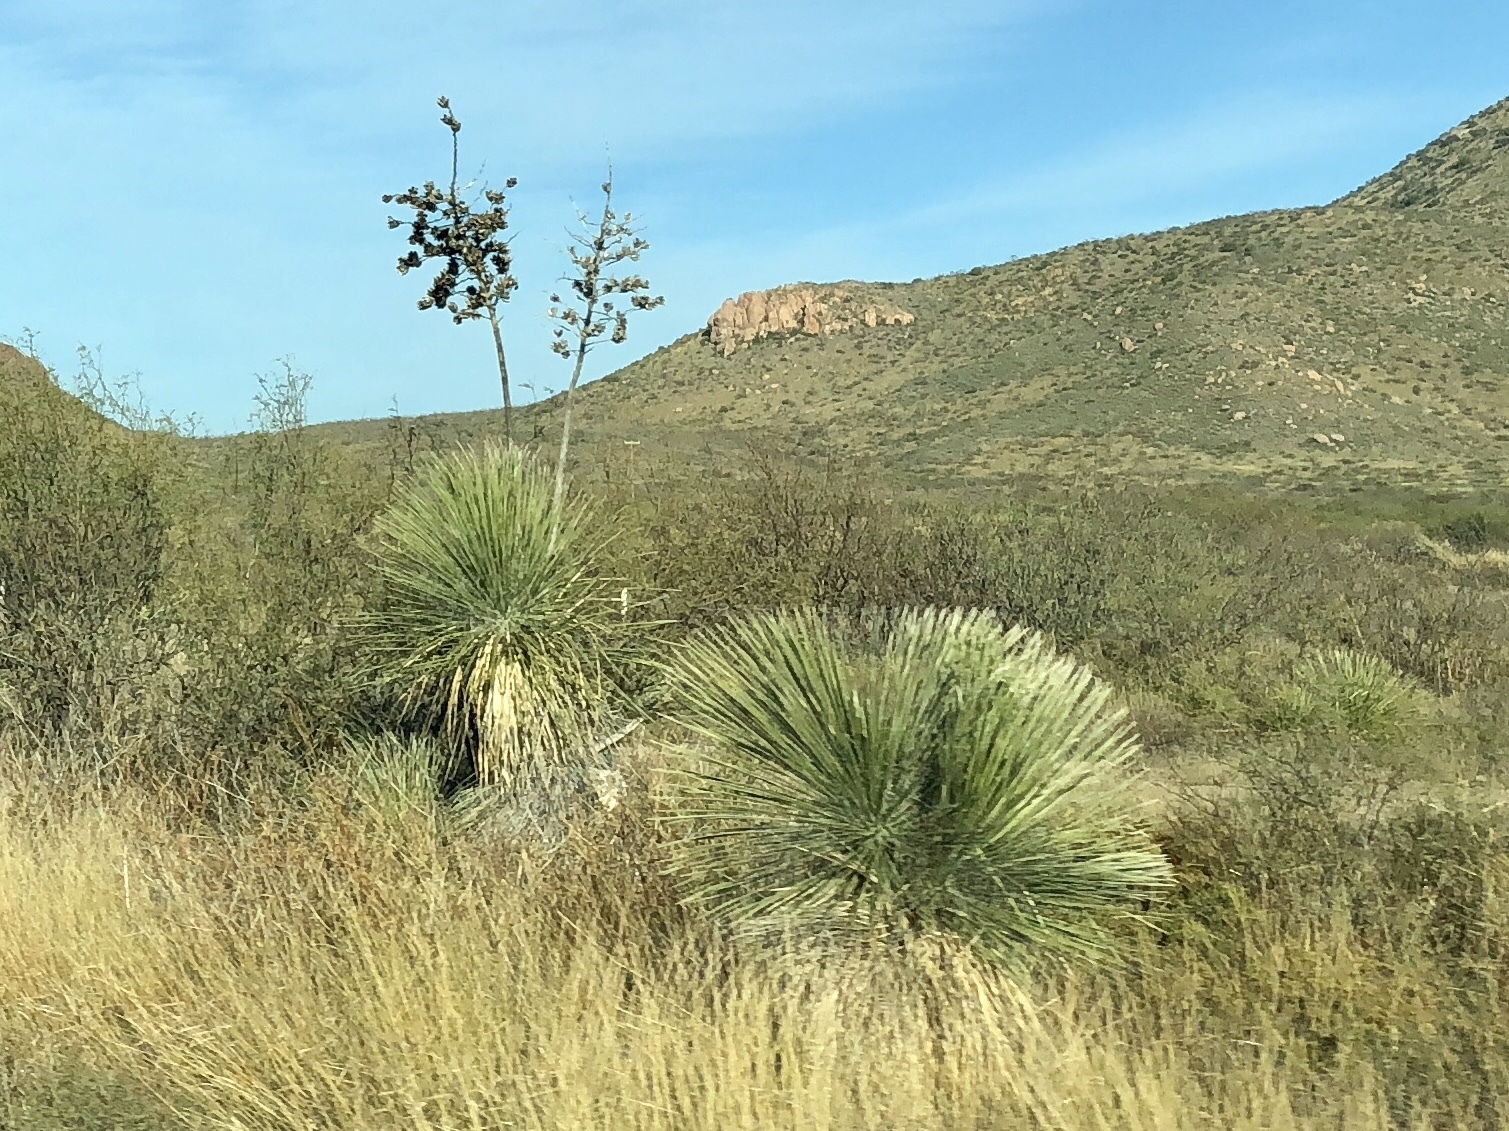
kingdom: Plantae
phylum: Tracheophyta
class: Liliopsida
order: Asparagales
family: Asparagaceae
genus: Yucca
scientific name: Yucca elata
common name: Palmella
